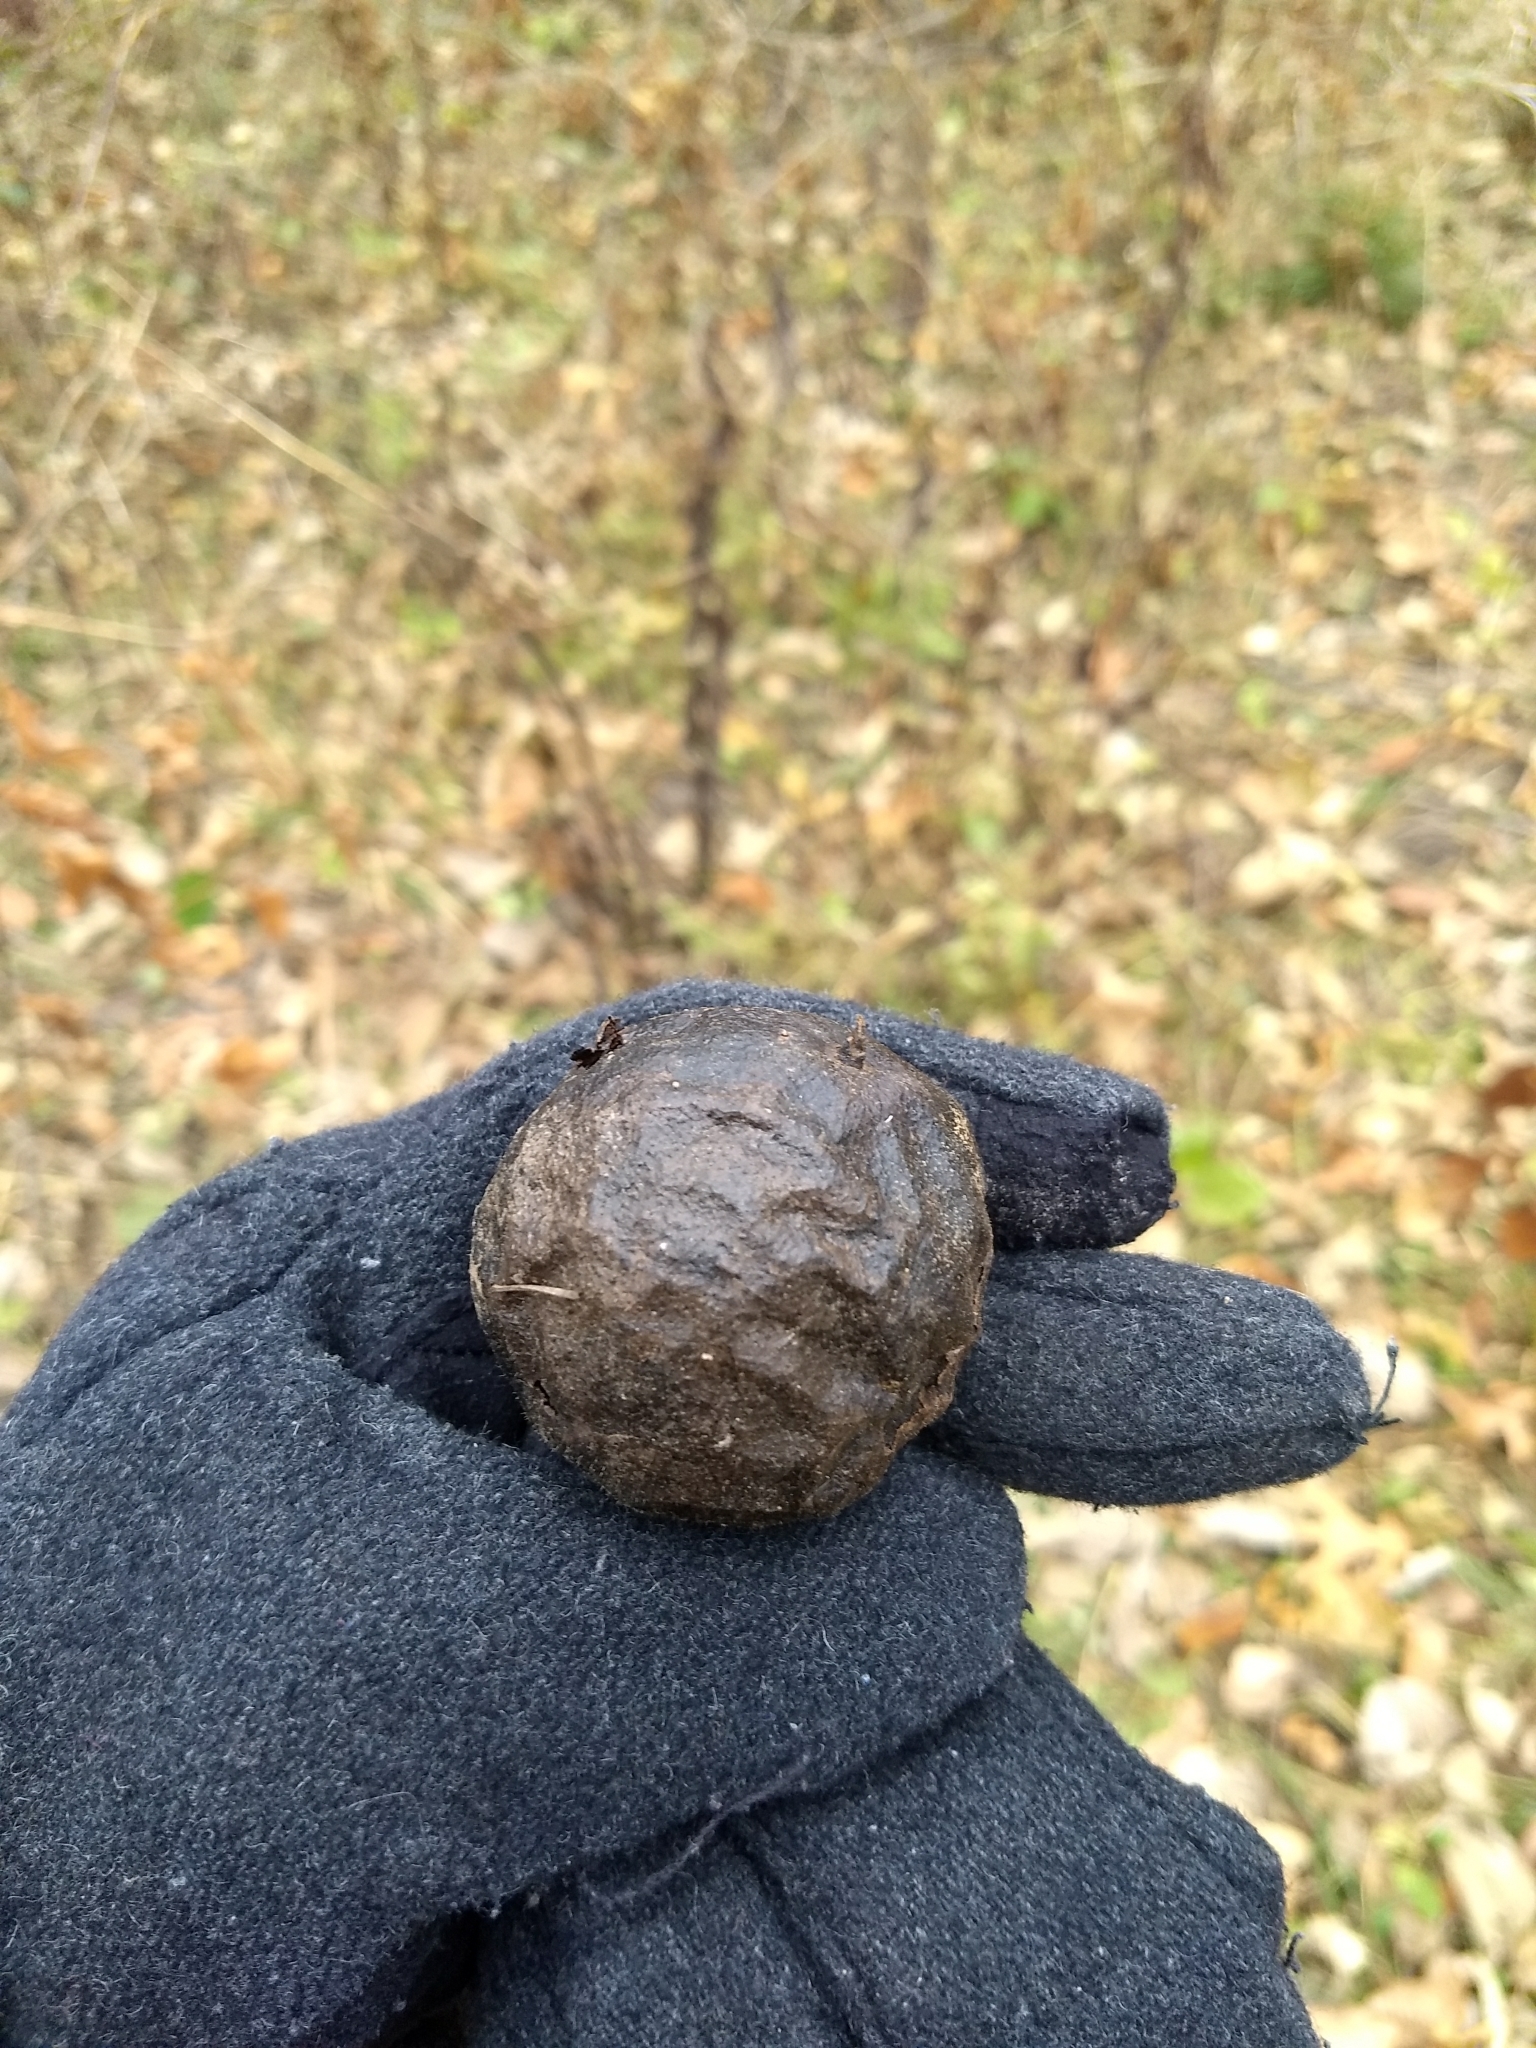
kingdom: Plantae
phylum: Tracheophyta
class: Magnoliopsida
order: Fagales
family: Juglandaceae
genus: Juglans
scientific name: Juglans nigra
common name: Black walnut
